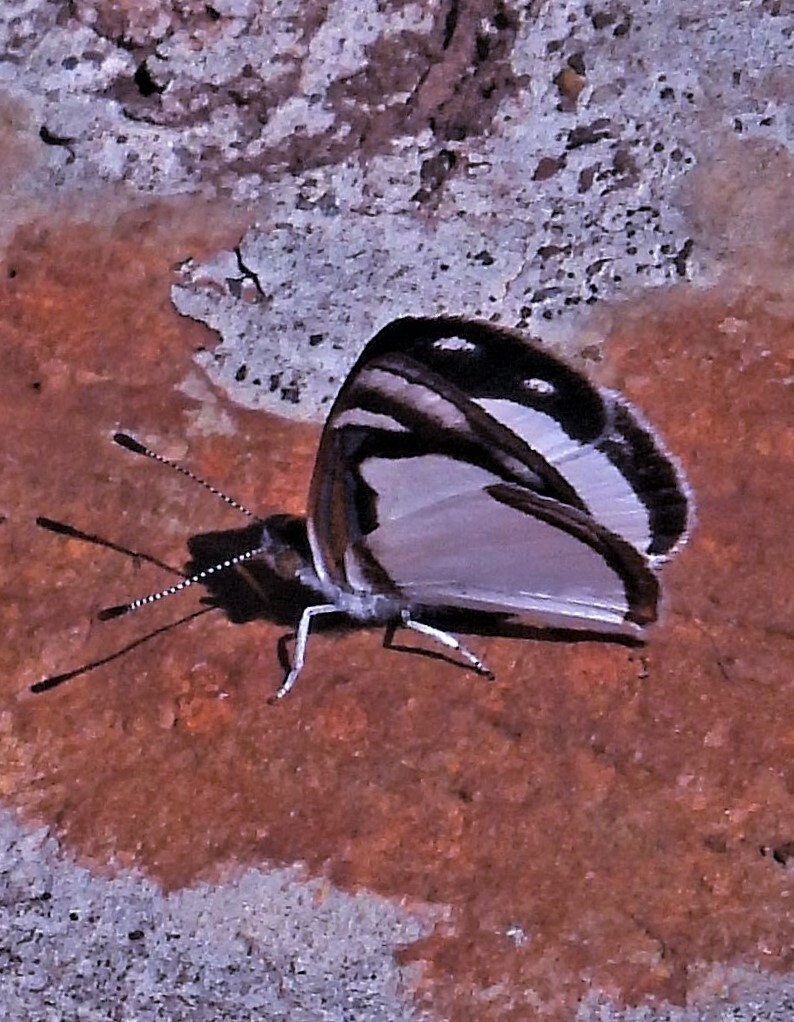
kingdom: Animalia
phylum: Arthropoda
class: Insecta
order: Lepidoptera
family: Nymphalidae
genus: Dynamine
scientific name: Dynamine agacles
